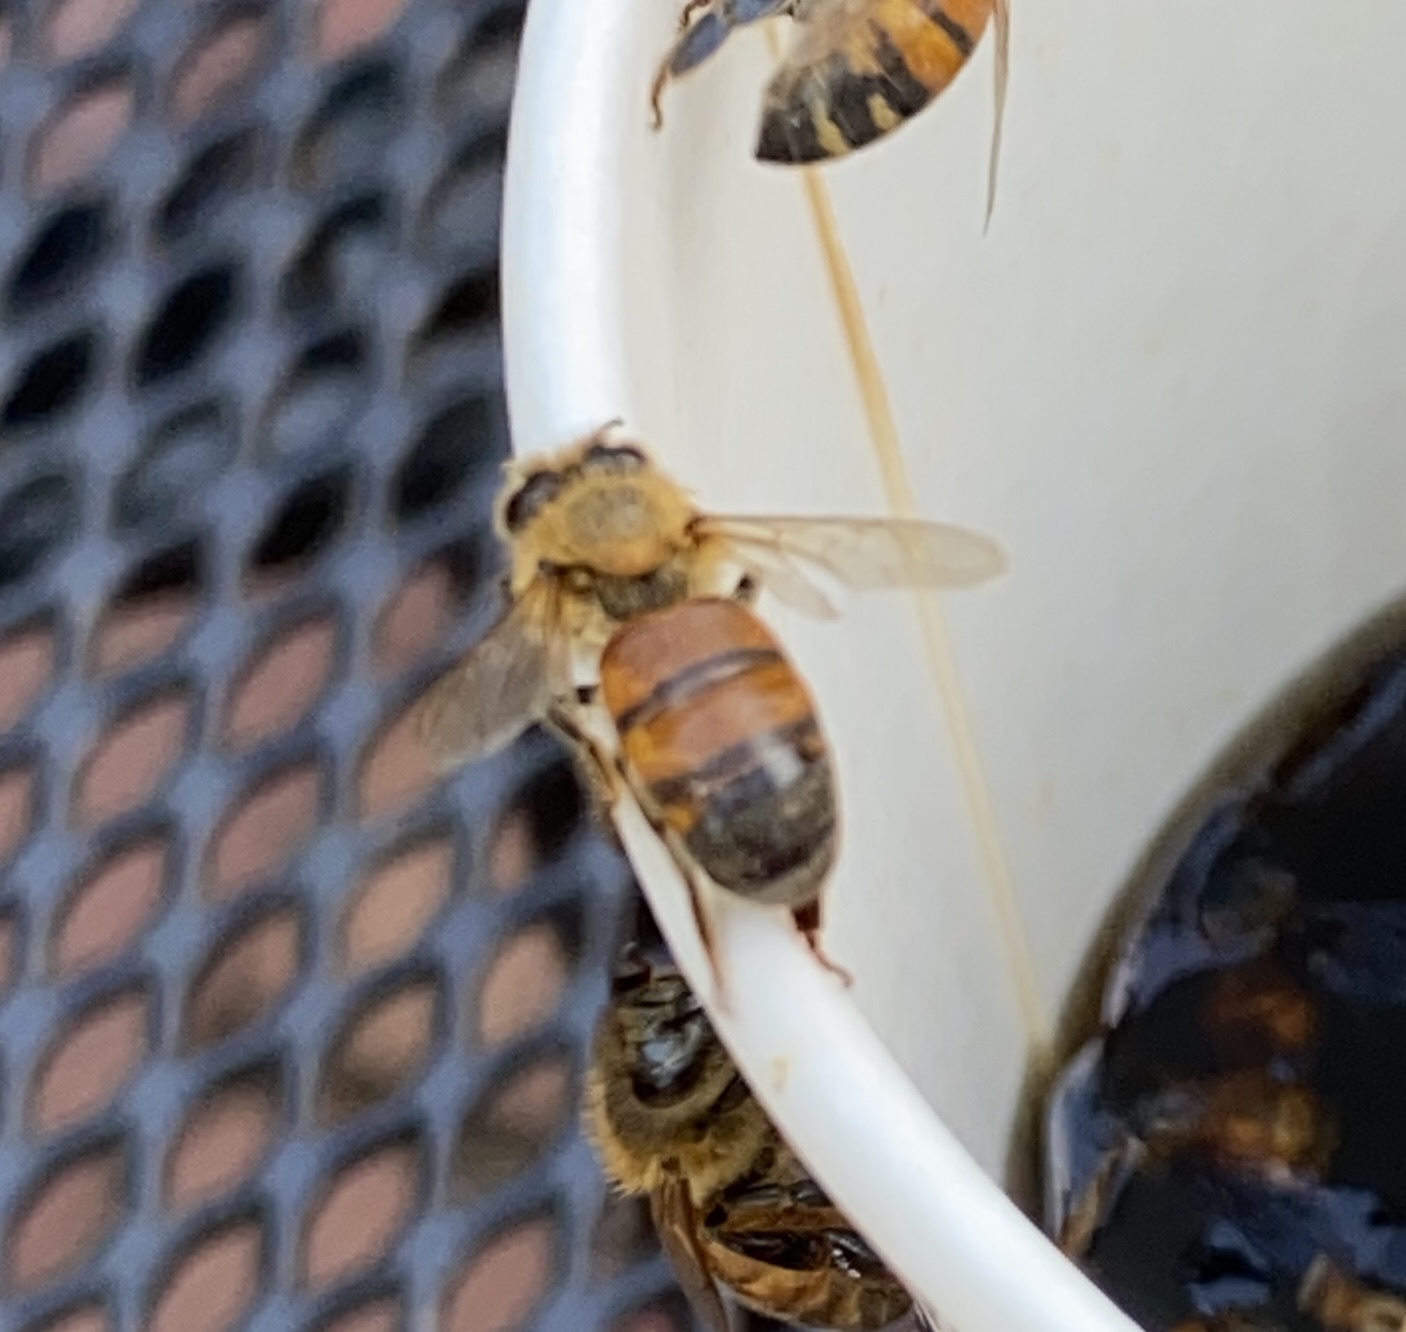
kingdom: Animalia
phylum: Arthropoda
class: Insecta
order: Hymenoptera
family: Apidae
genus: Apis
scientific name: Apis mellifera
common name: Honey bee
